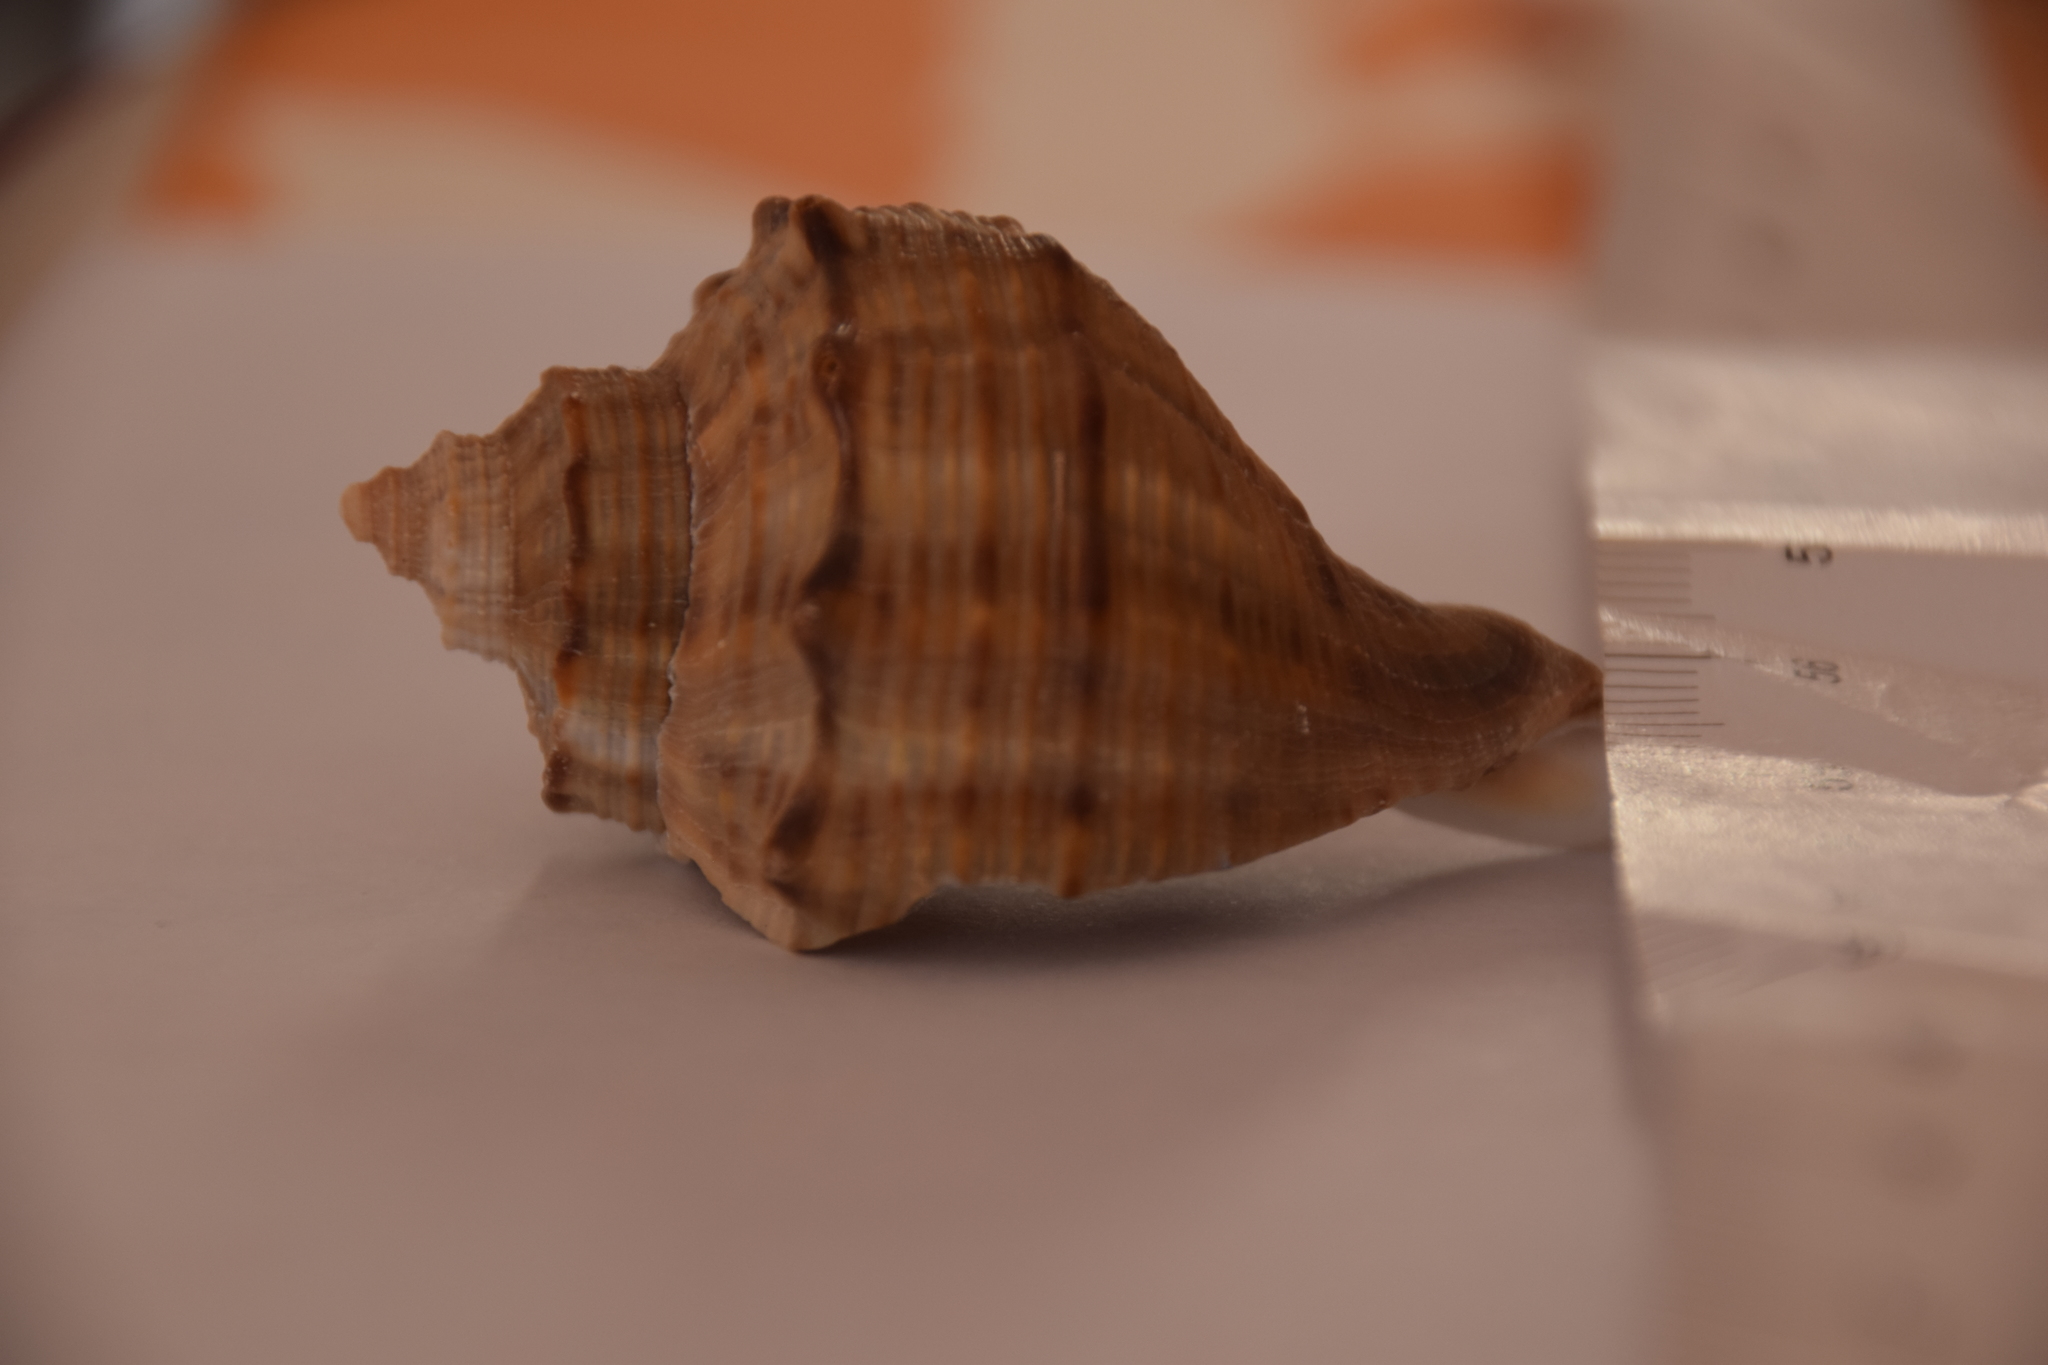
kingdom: Animalia
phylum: Mollusca
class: Gastropoda
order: Neogastropoda
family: Muricidae
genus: Rapana
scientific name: Rapana venosa
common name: Veined rapa whelk
